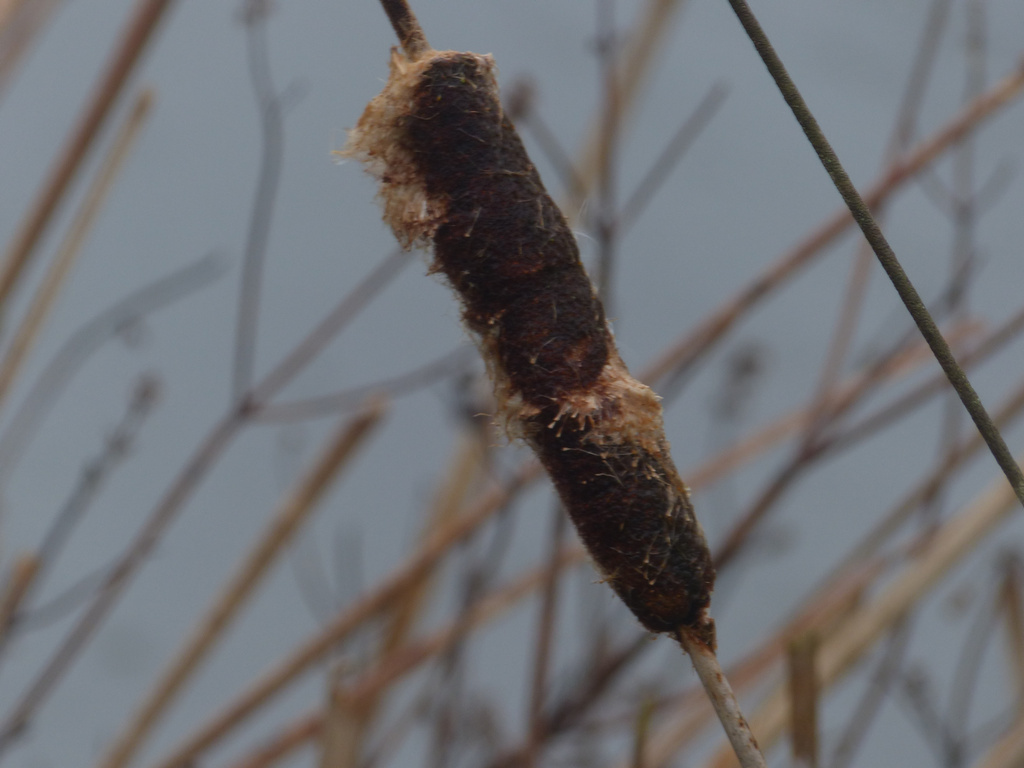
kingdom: Plantae
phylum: Tracheophyta
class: Liliopsida
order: Poales
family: Typhaceae
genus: Typha
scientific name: Typha latifolia
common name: Broadleaf cattail
